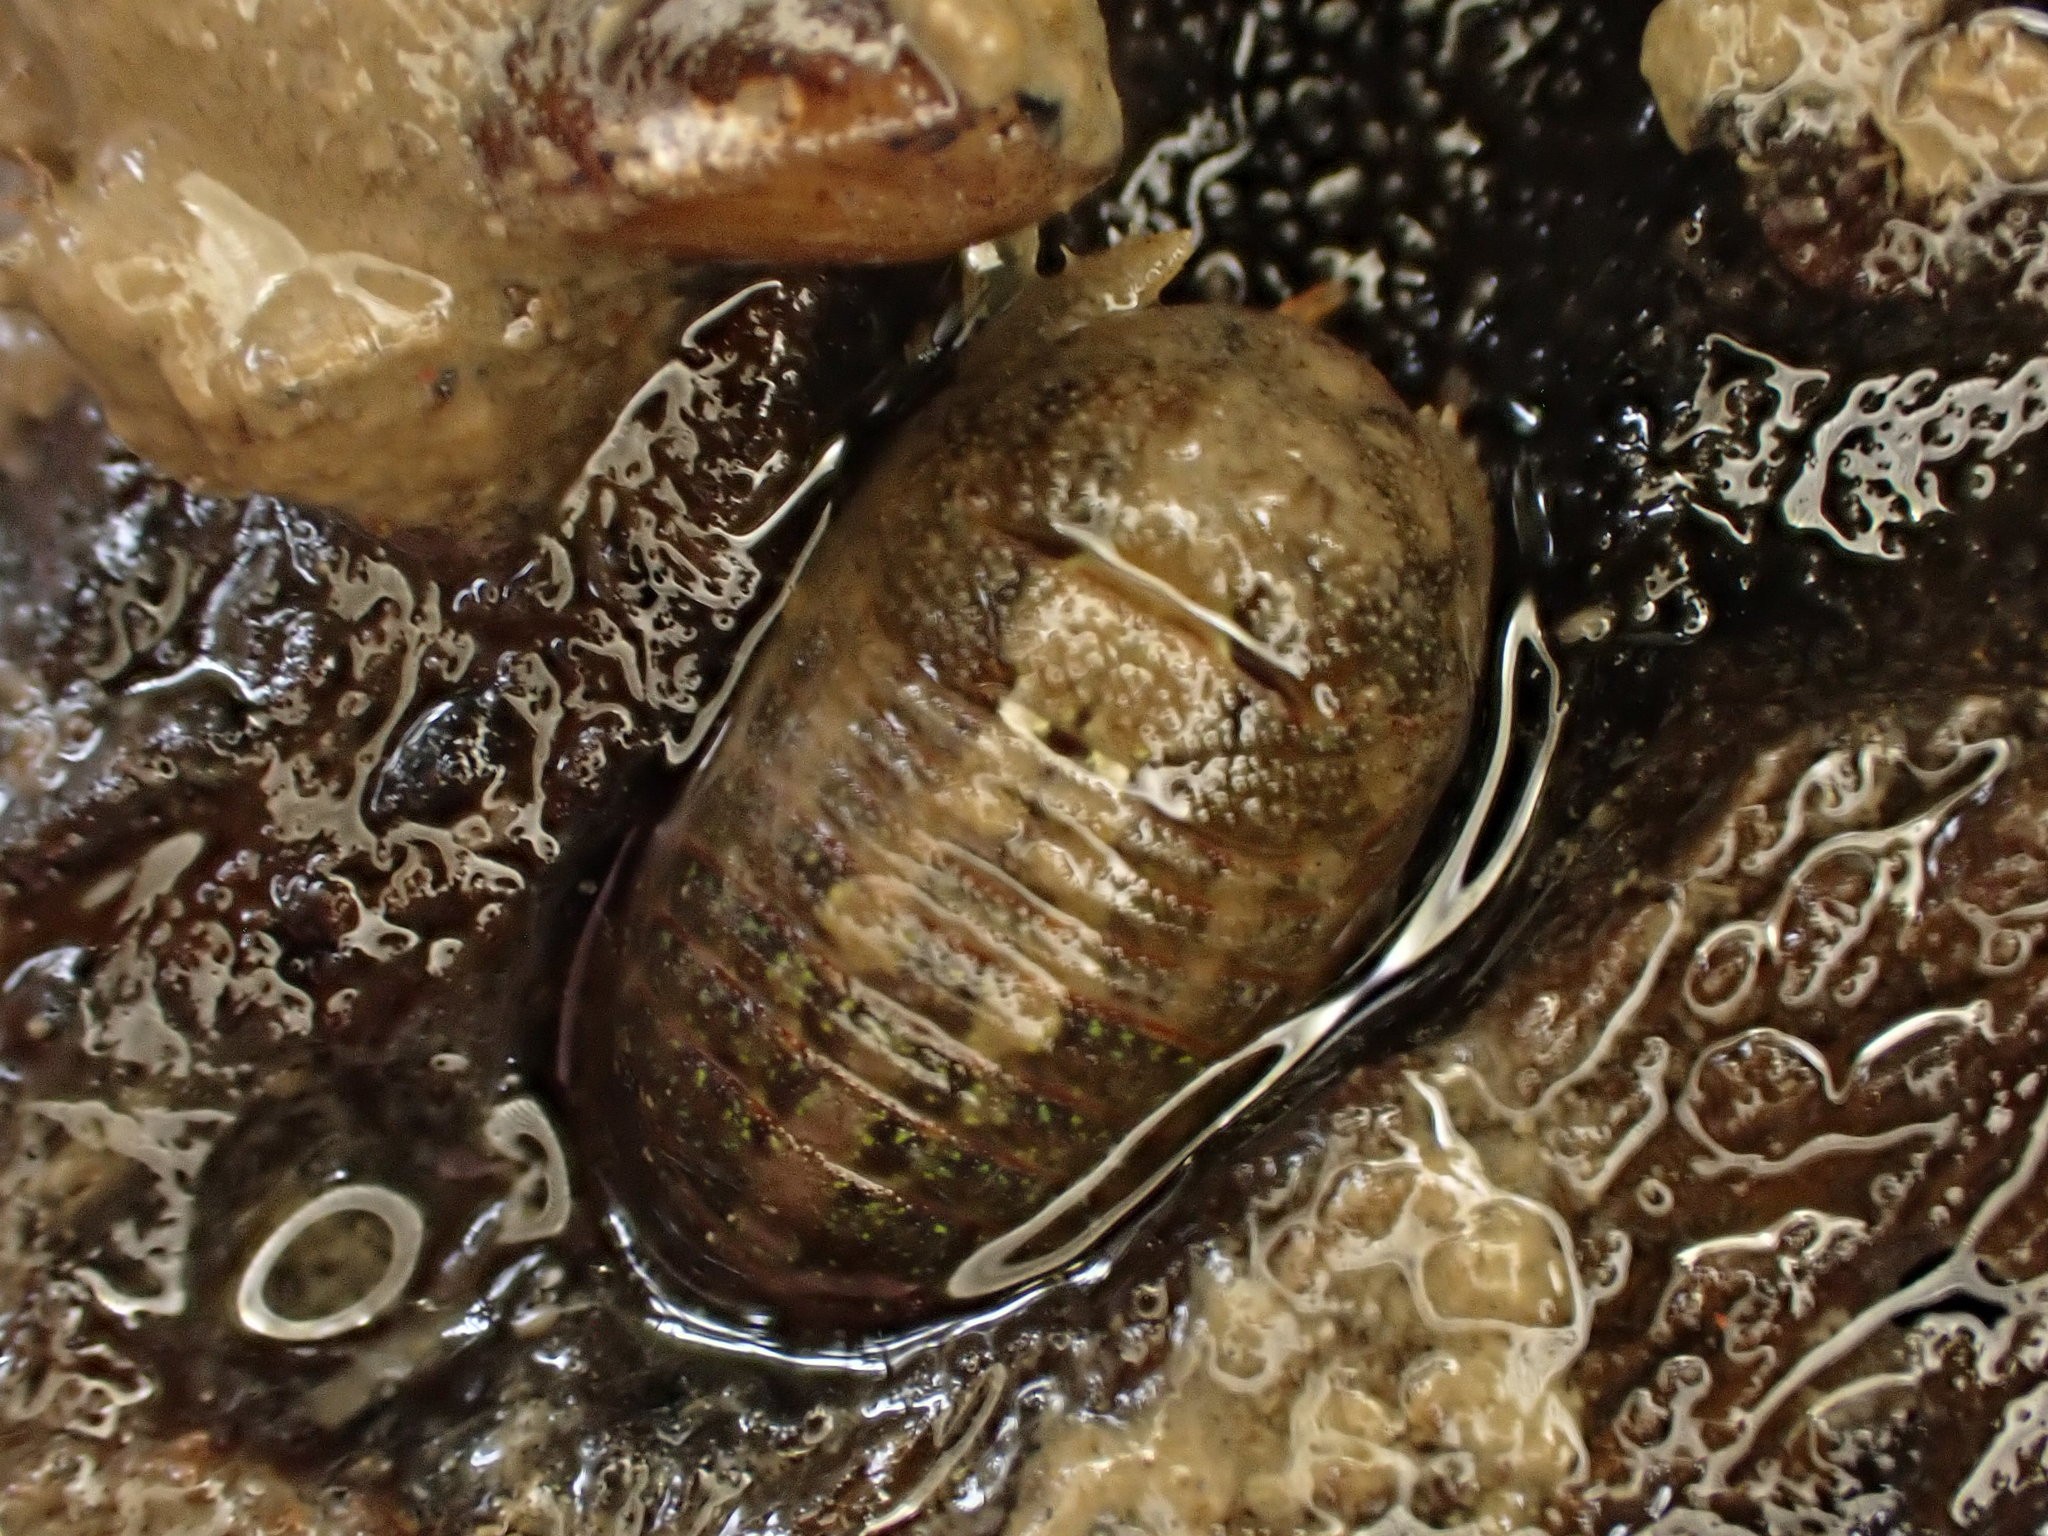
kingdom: Animalia
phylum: Arthropoda
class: Malacostraca
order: Isopoda
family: Sphaeromatidae
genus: Sphaeroma
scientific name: Sphaeroma quoianum
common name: Isopod
